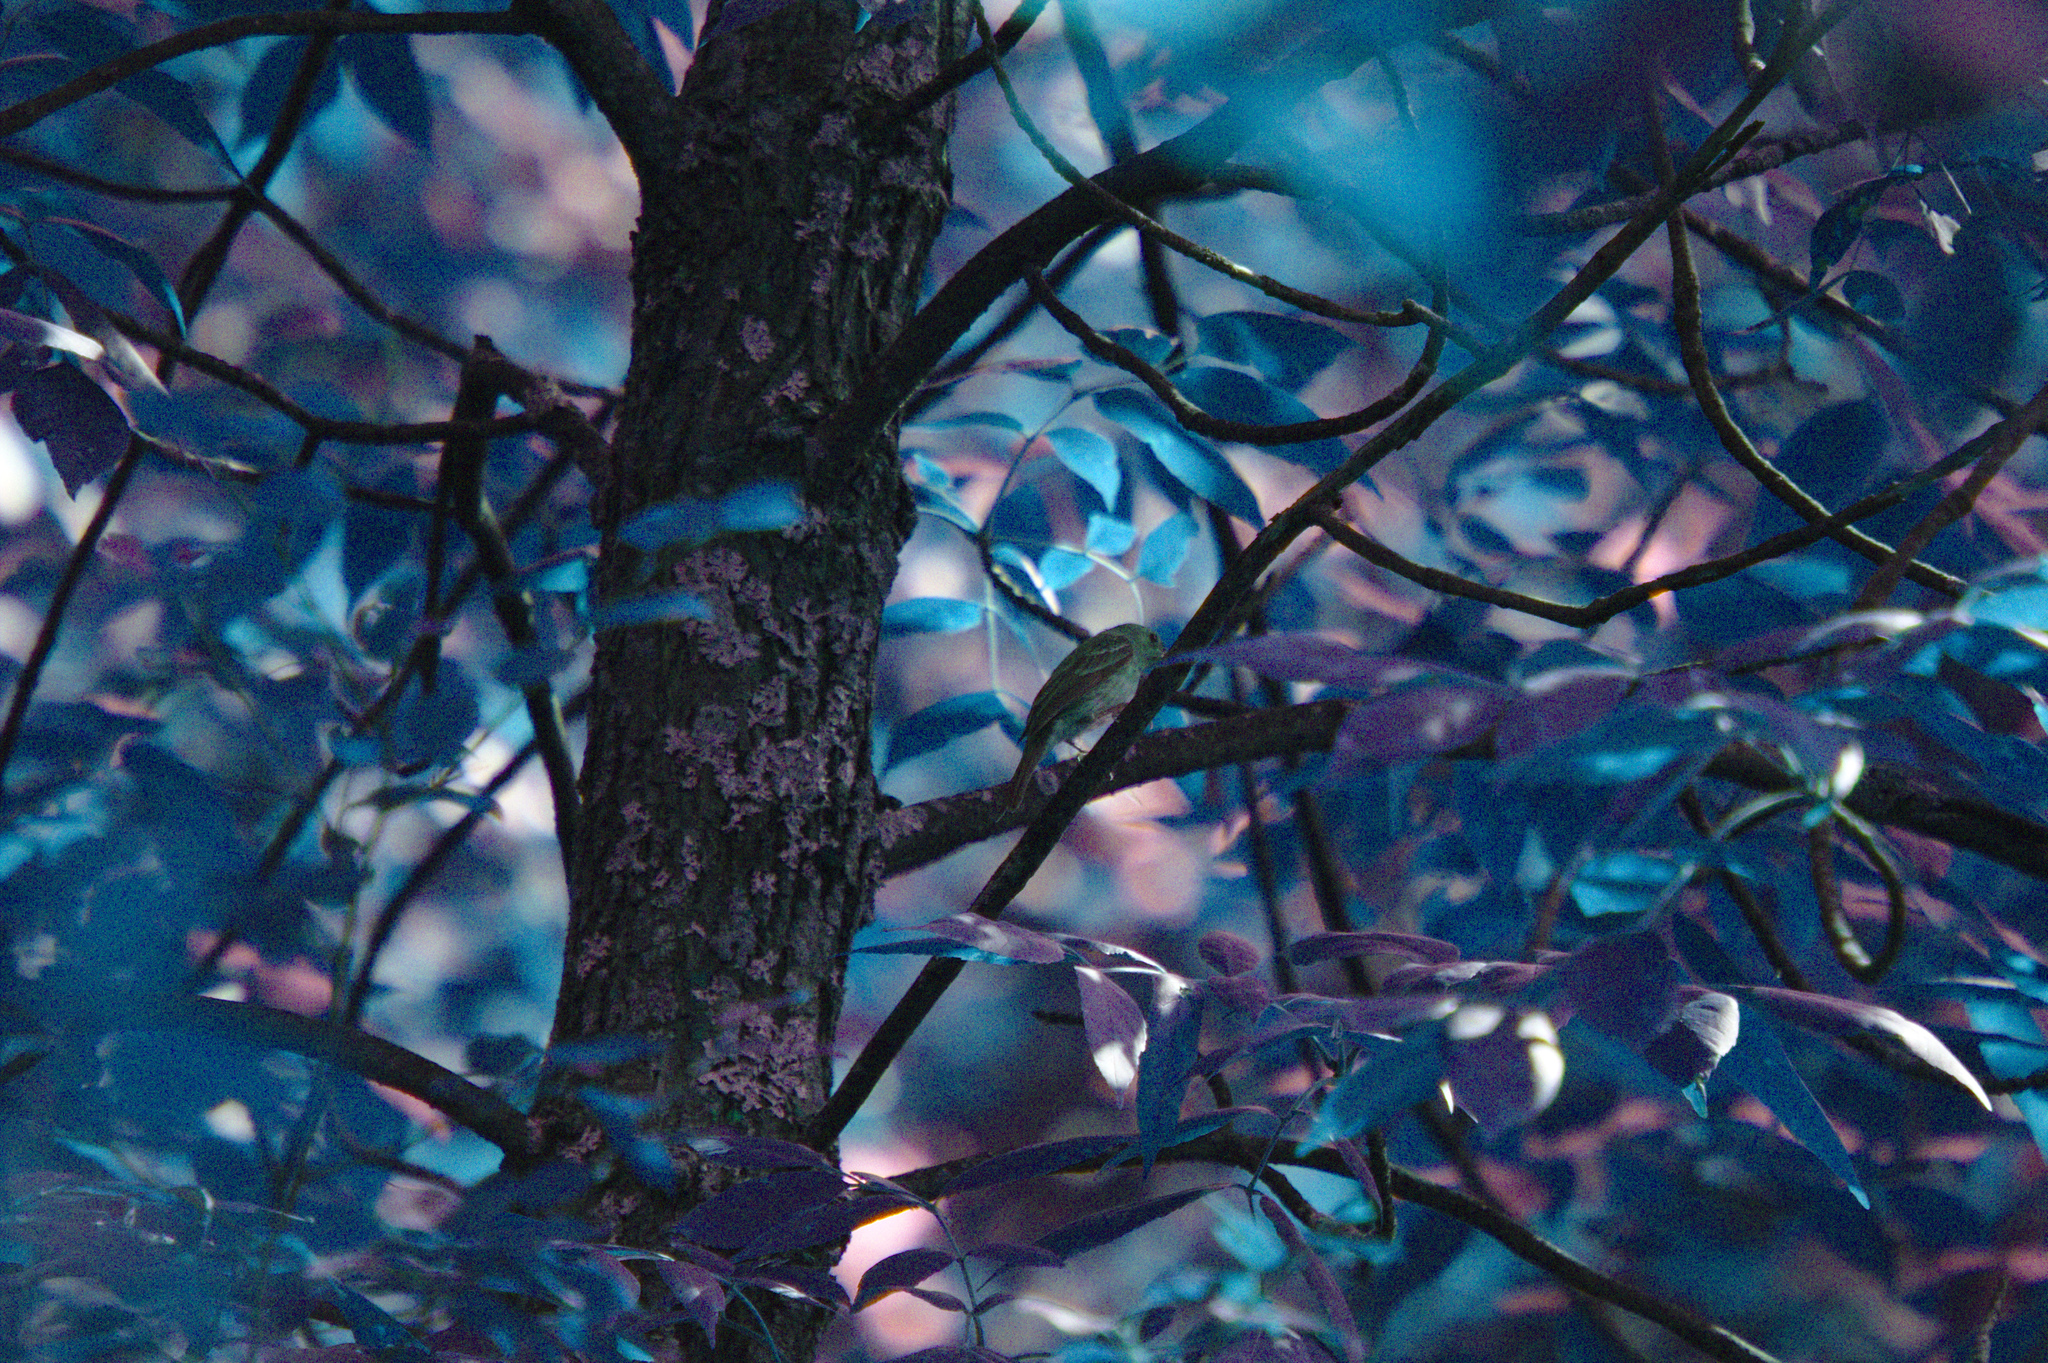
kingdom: Animalia
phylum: Chordata
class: Aves
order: Passeriformes
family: Cardinalidae
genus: Passerina
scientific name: Passerina cyanea
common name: Indigo bunting
